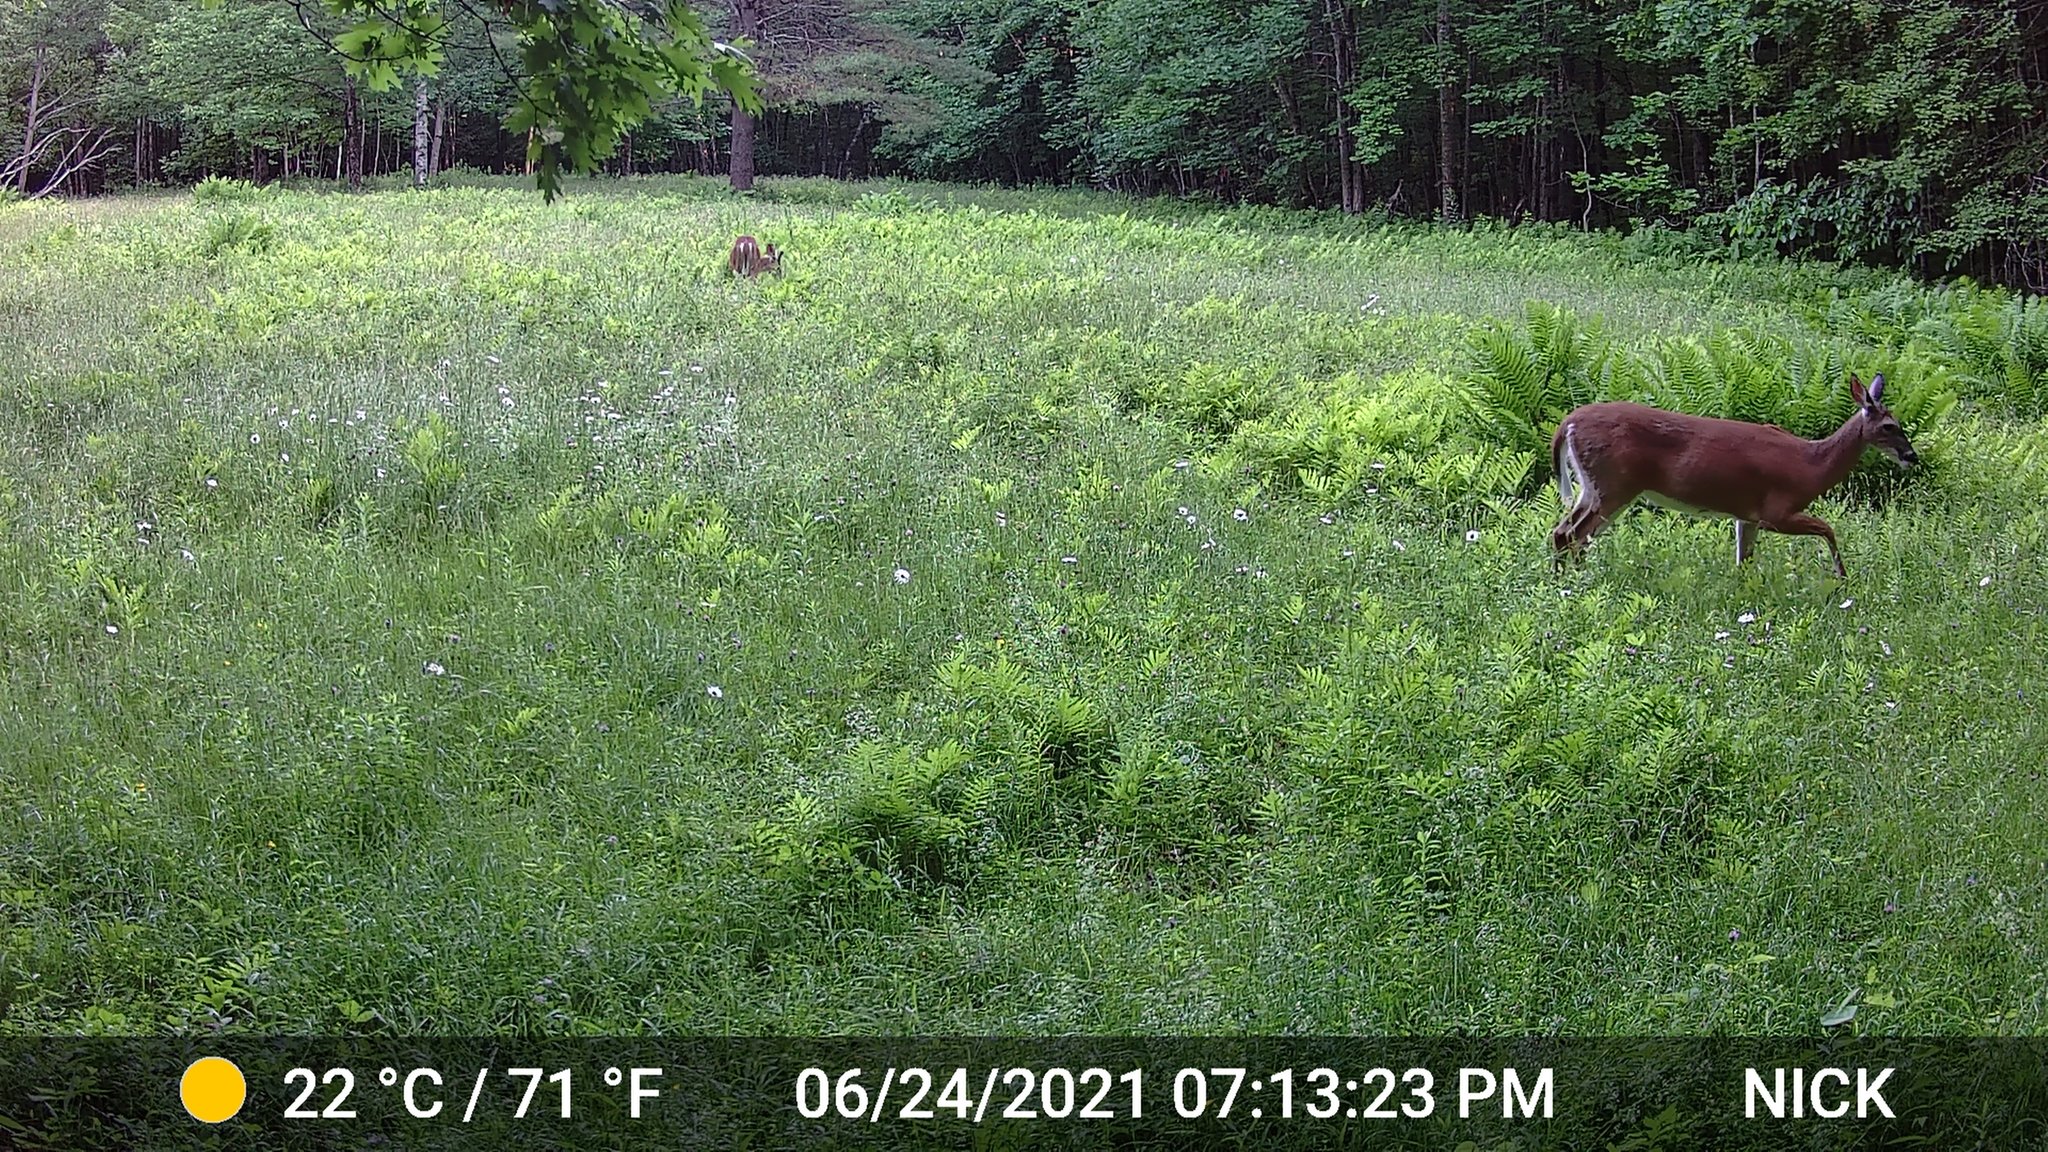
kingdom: Animalia
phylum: Chordata
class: Mammalia
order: Artiodactyla
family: Cervidae
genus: Odocoileus
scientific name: Odocoileus virginianus
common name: White-tailed deer
